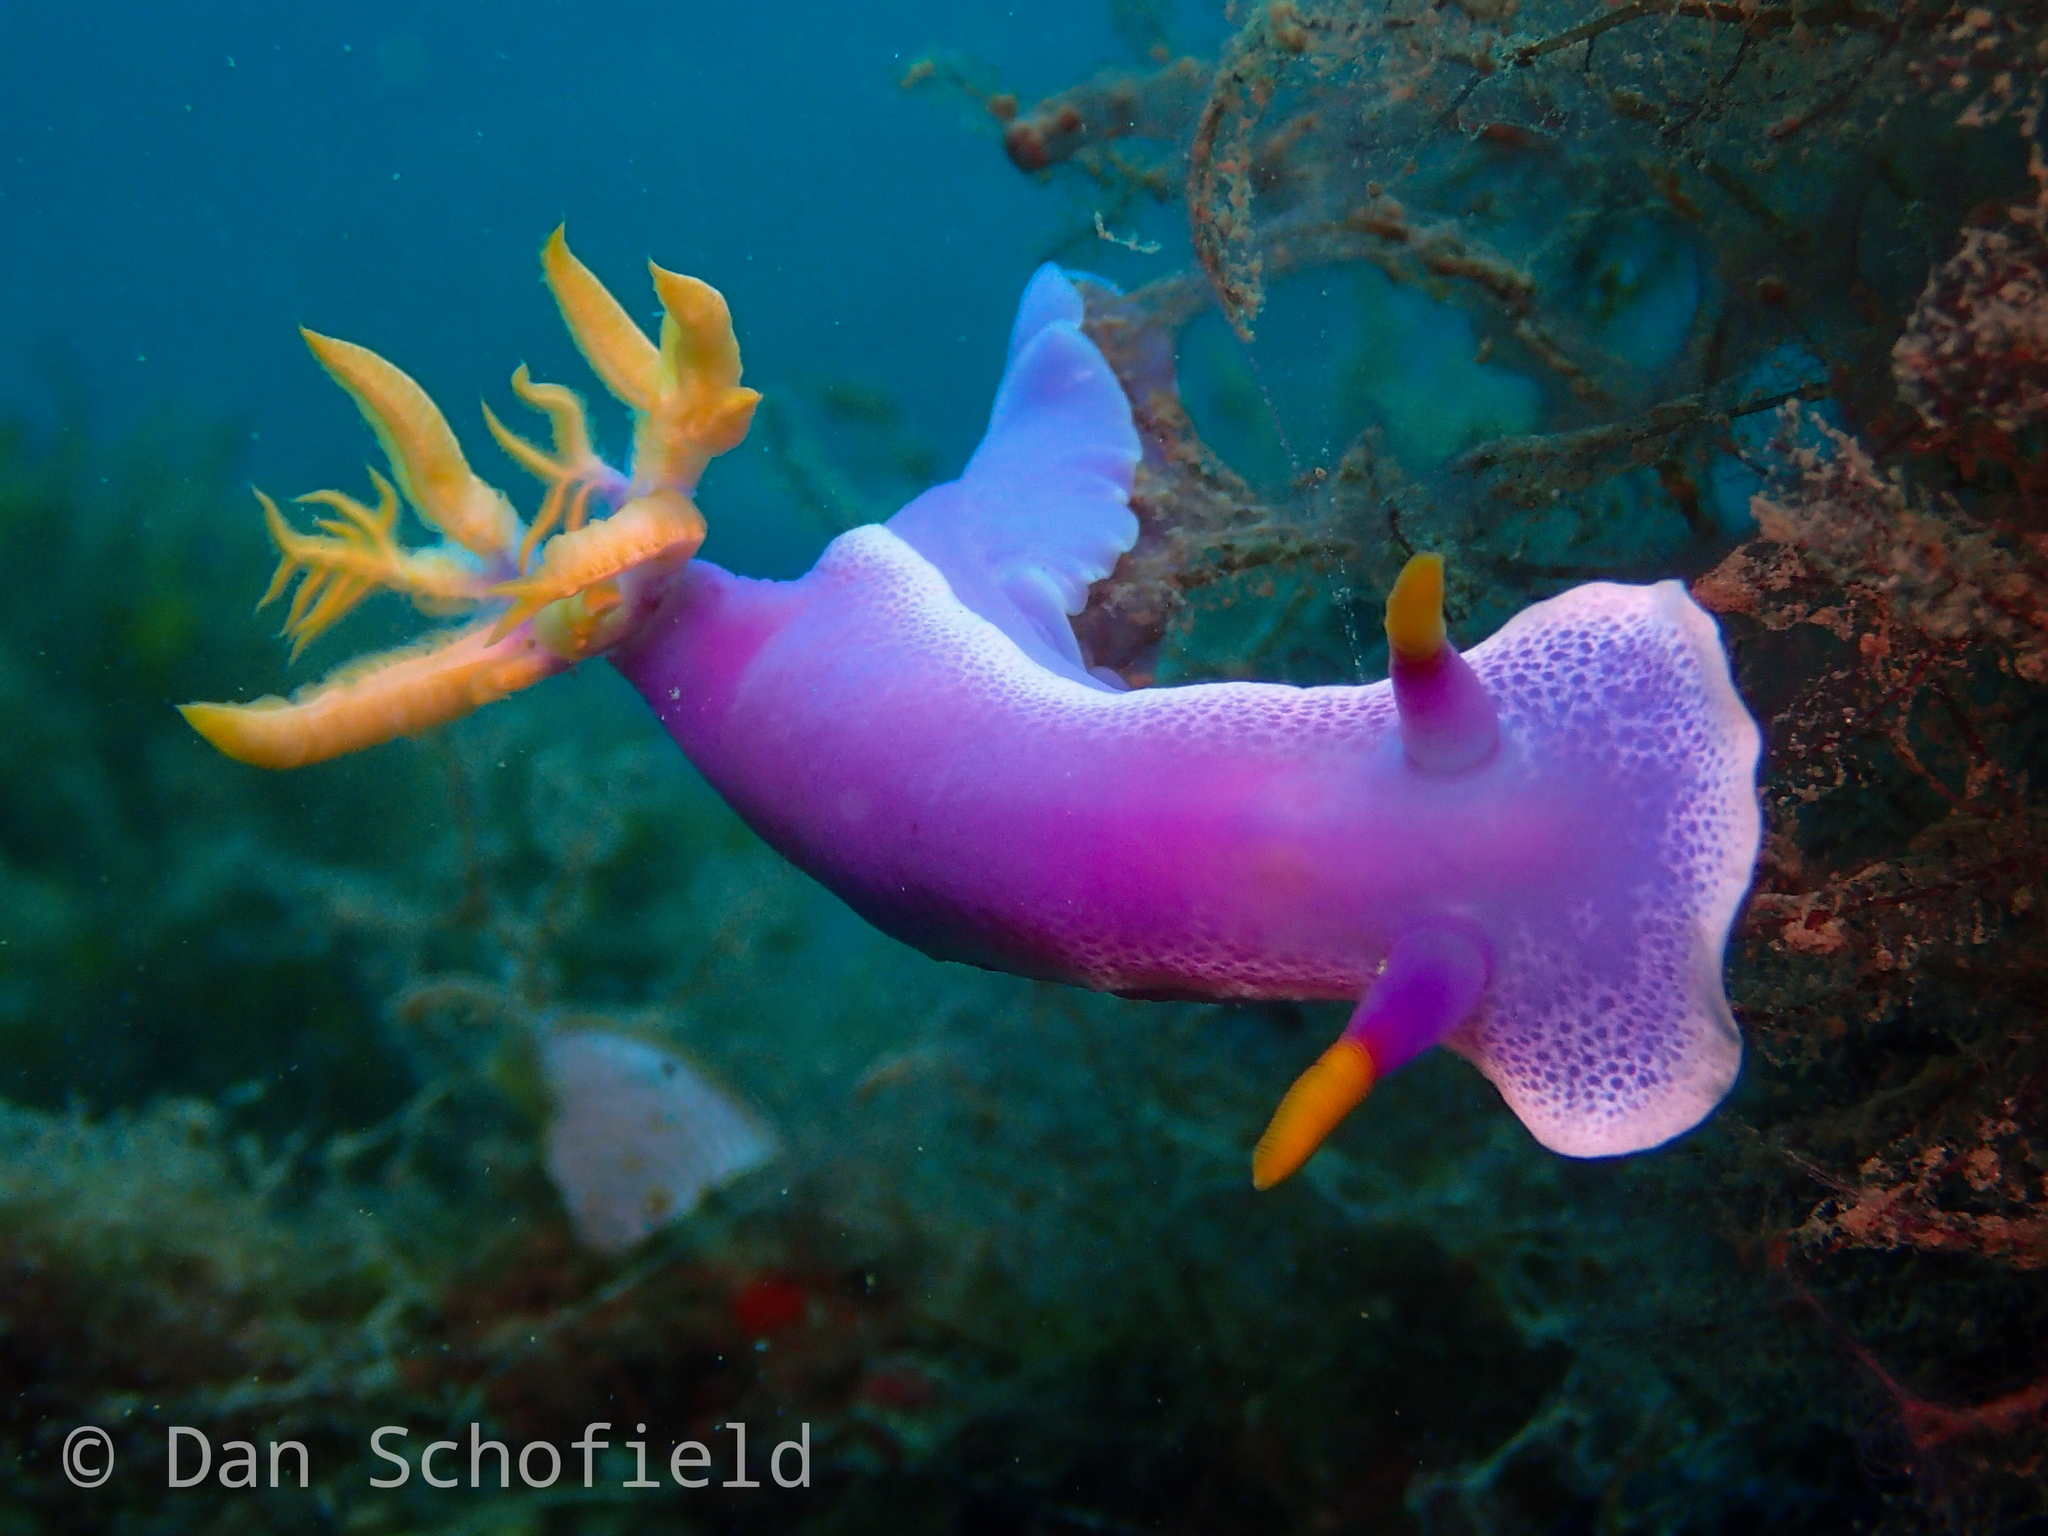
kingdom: Animalia
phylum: Mollusca
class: Gastropoda
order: Nudibranchia
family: Chromodorididae
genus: Hypselodoris
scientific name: Hypselodoris apolegma
